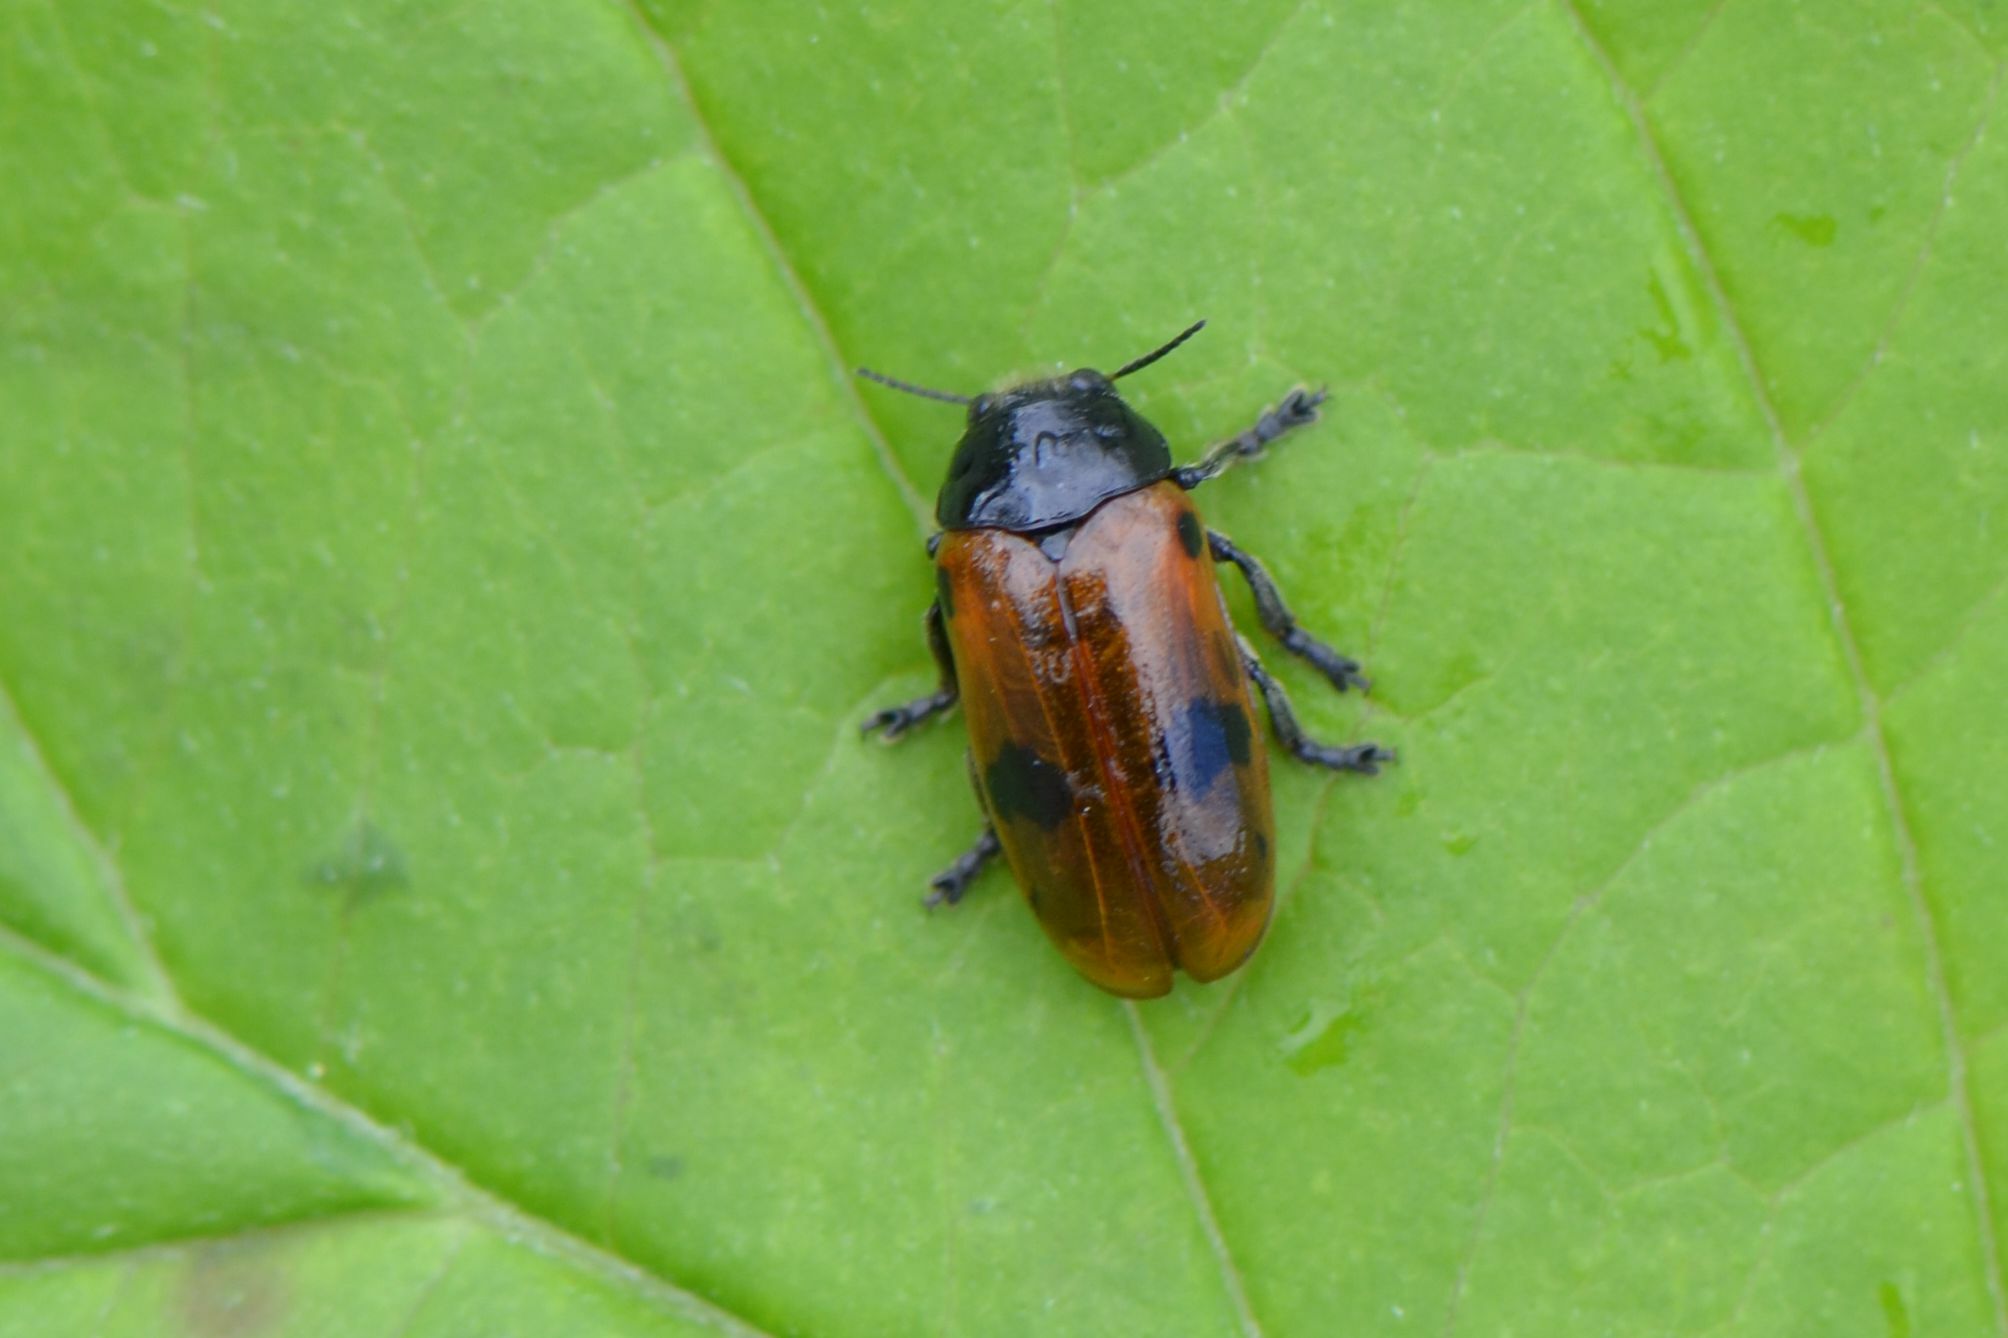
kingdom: Animalia
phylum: Arthropoda
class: Insecta
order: Coleoptera
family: Chrysomelidae
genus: Clytra
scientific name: Clytra laeviuscula
